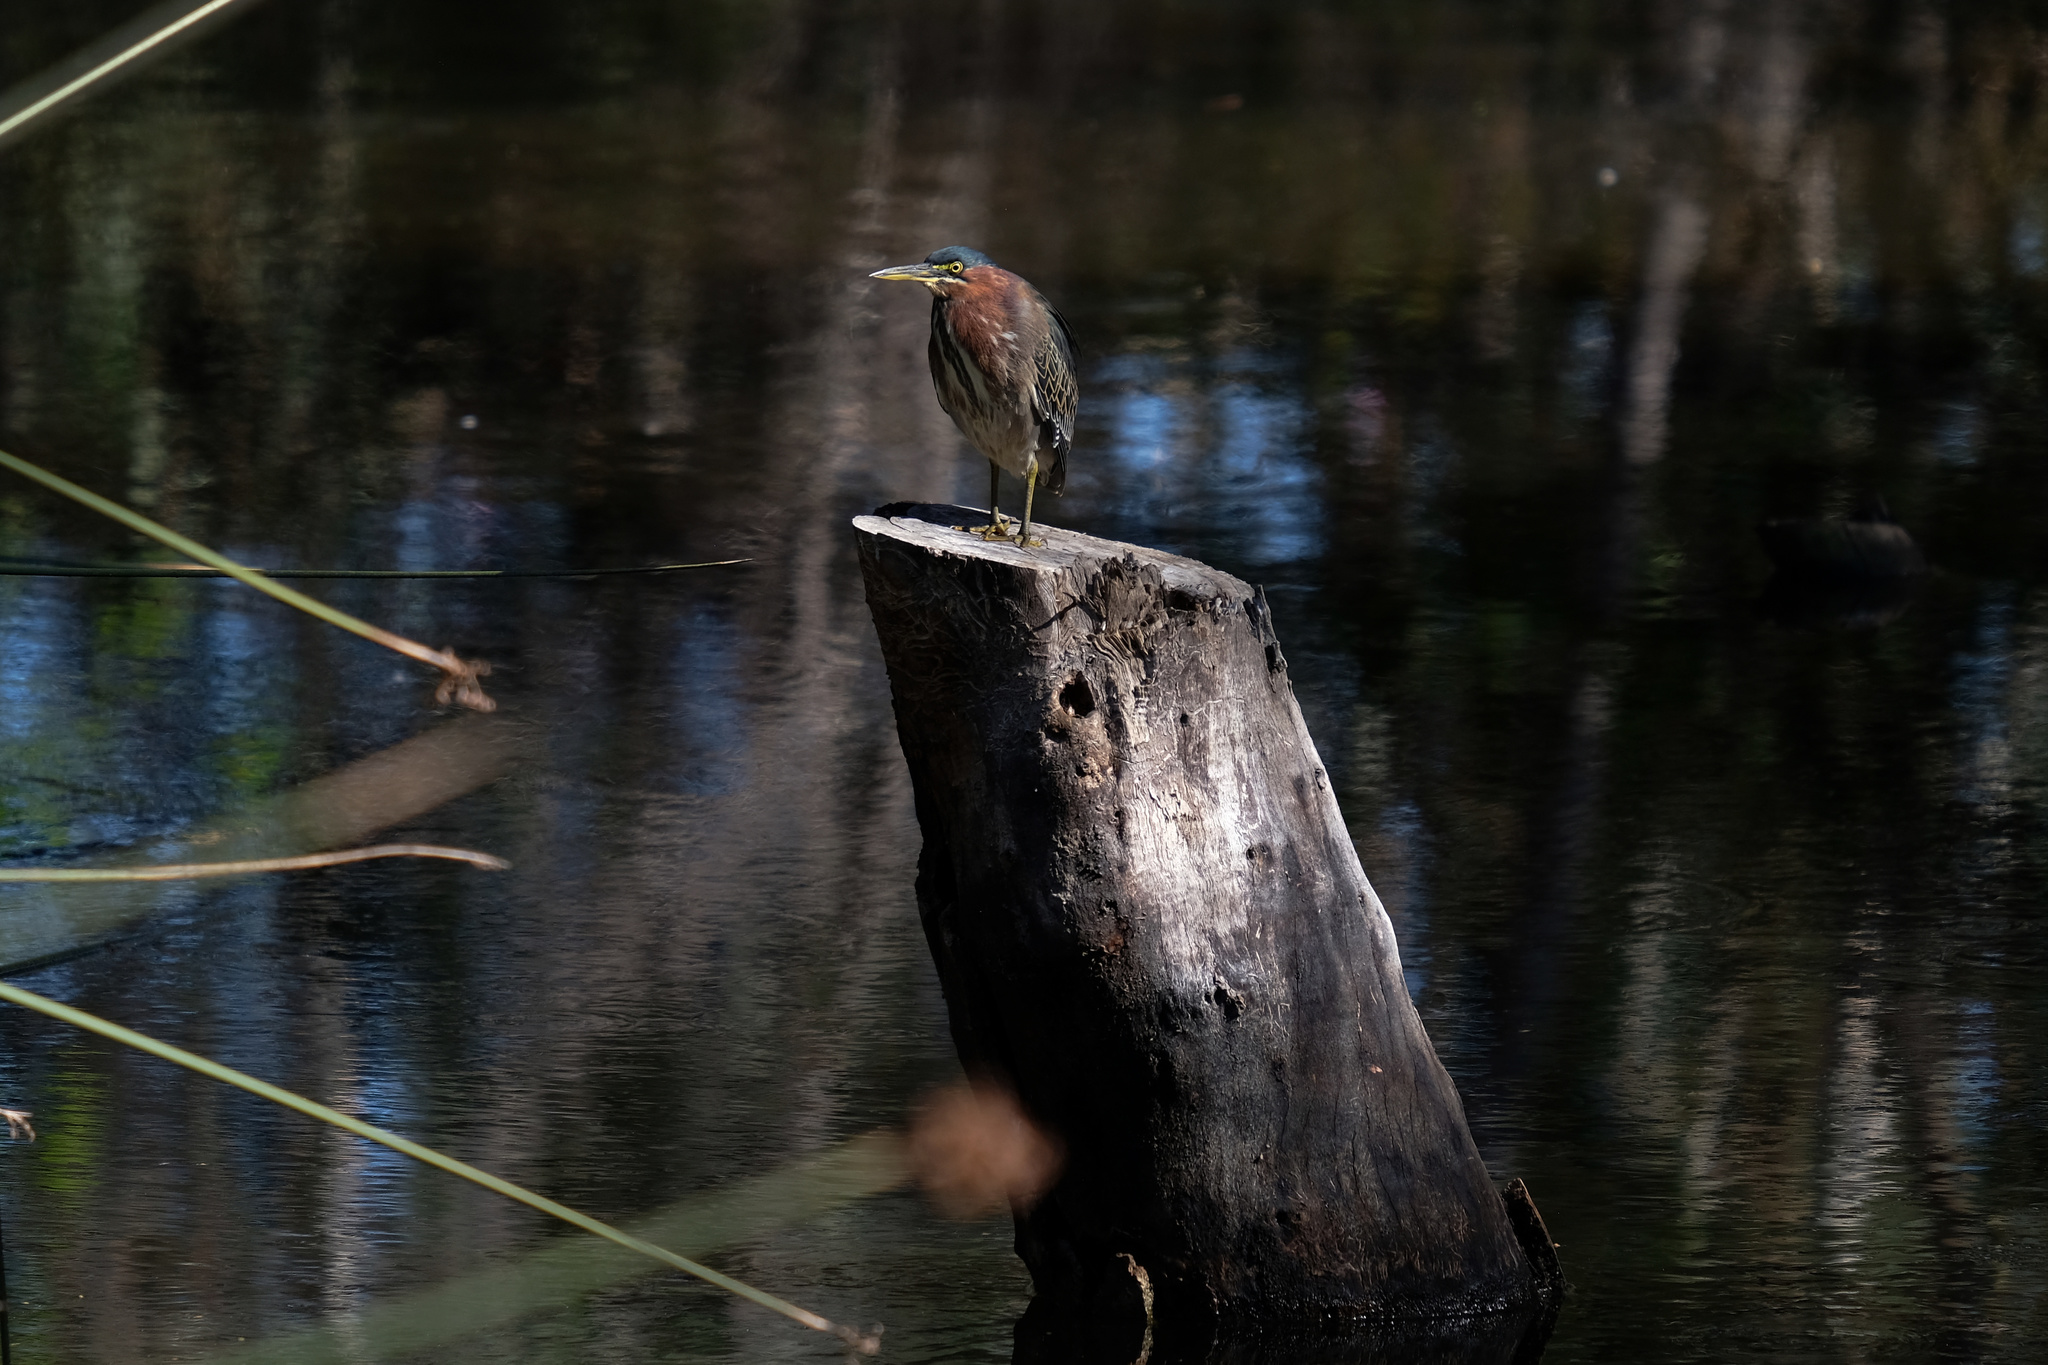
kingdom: Animalia
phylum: Chordata
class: Aves
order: Pelecaniformes
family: Ardeidae
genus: Butorides
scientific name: Butorides virescens
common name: Green heron
